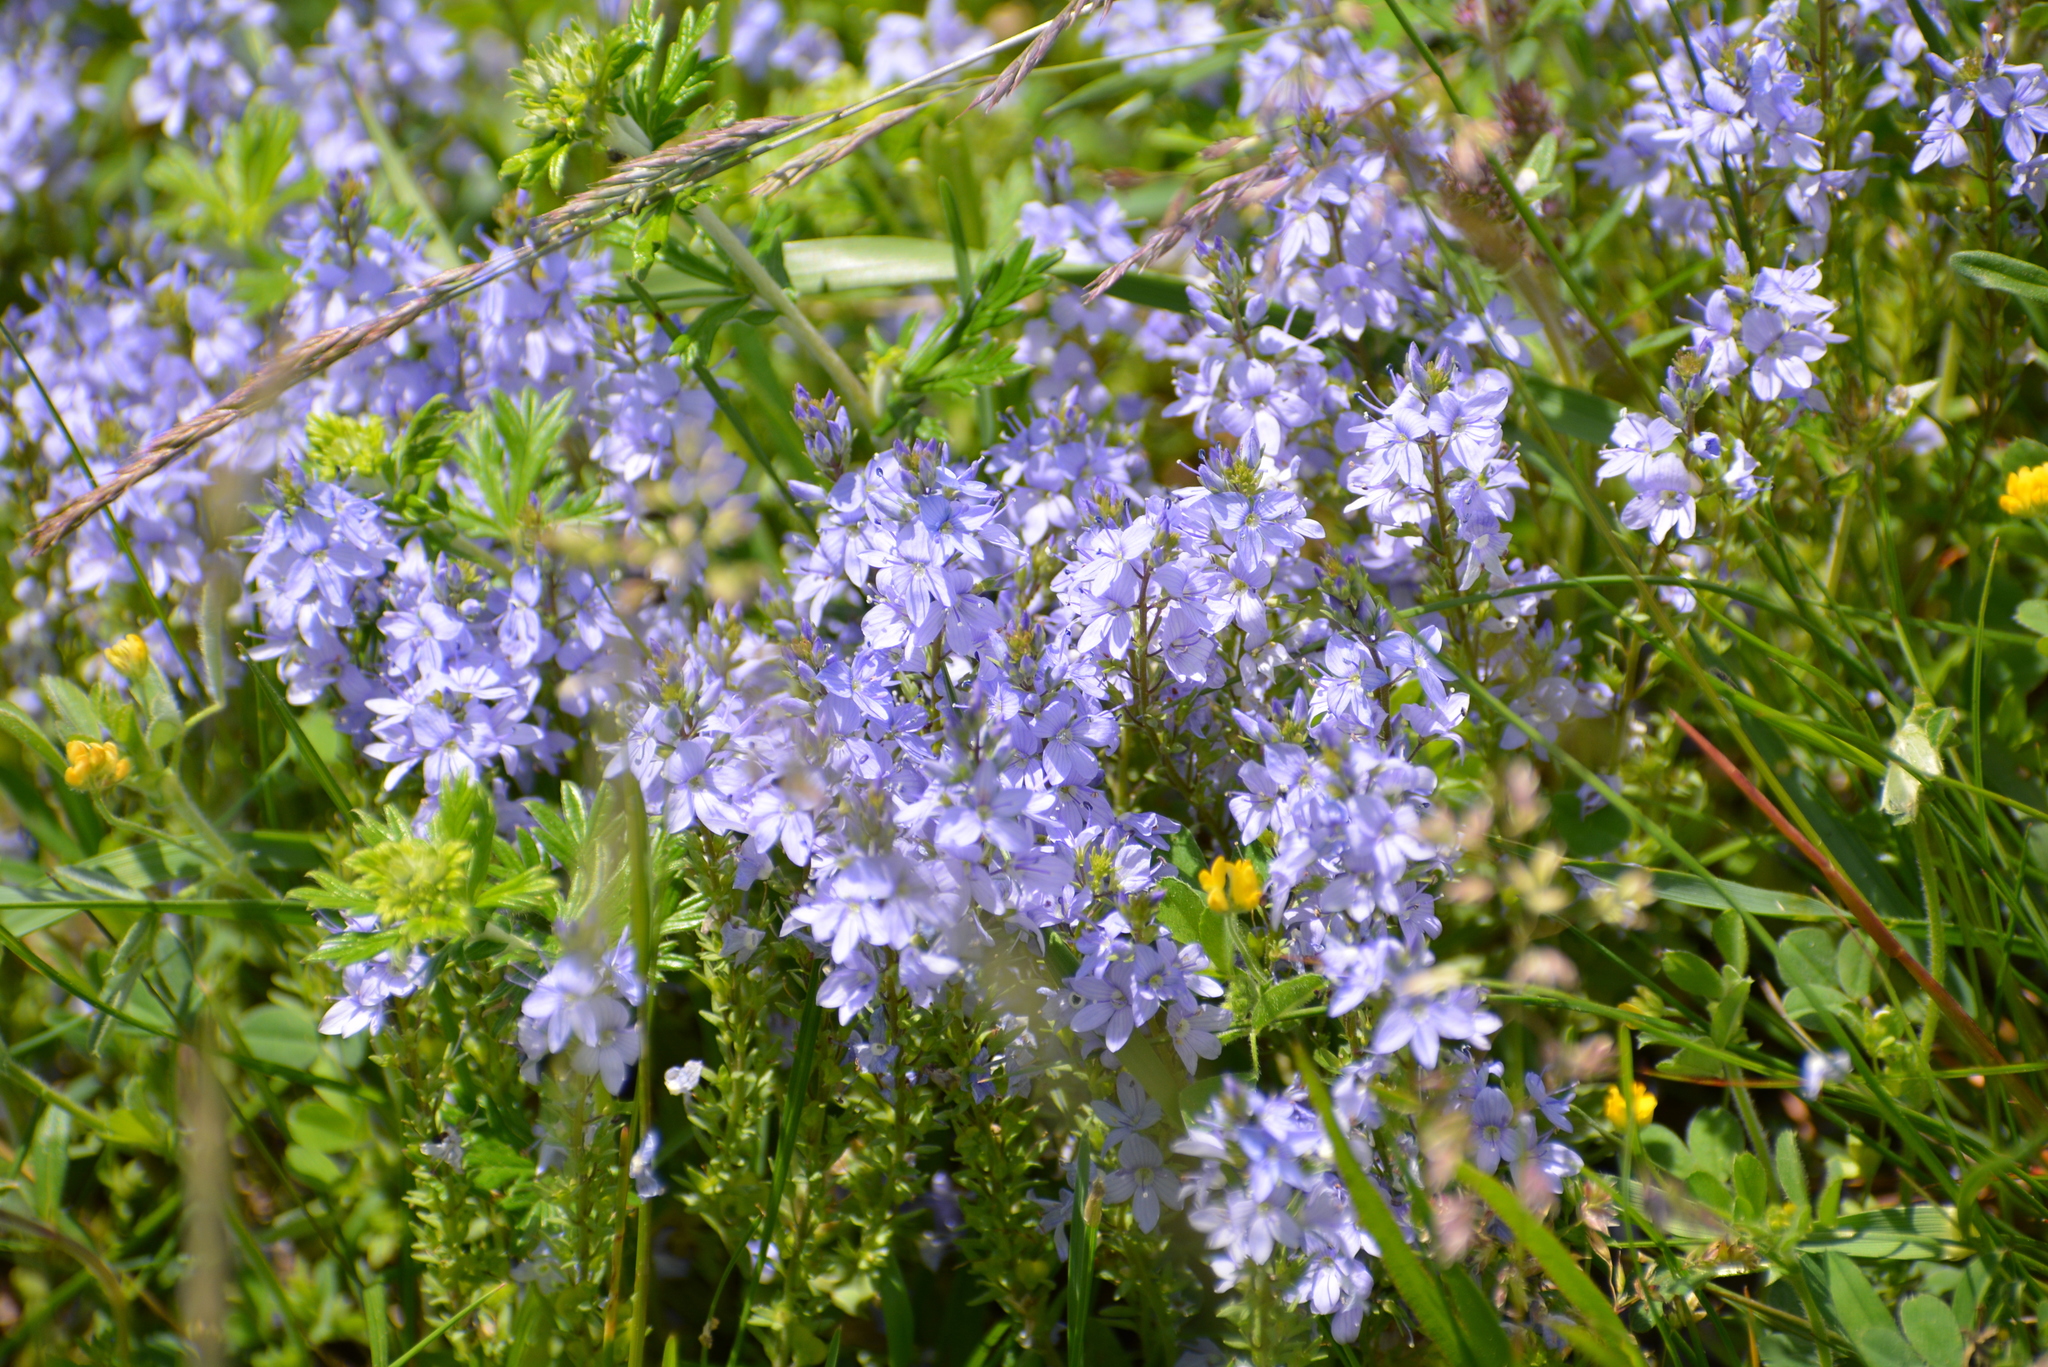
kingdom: Plantae
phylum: Tracheophyta
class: Magnoliopsida
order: Lamiales
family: Plantaginaceae
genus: Veronica
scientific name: Veronica prostrata
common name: Prostrate speedwell
